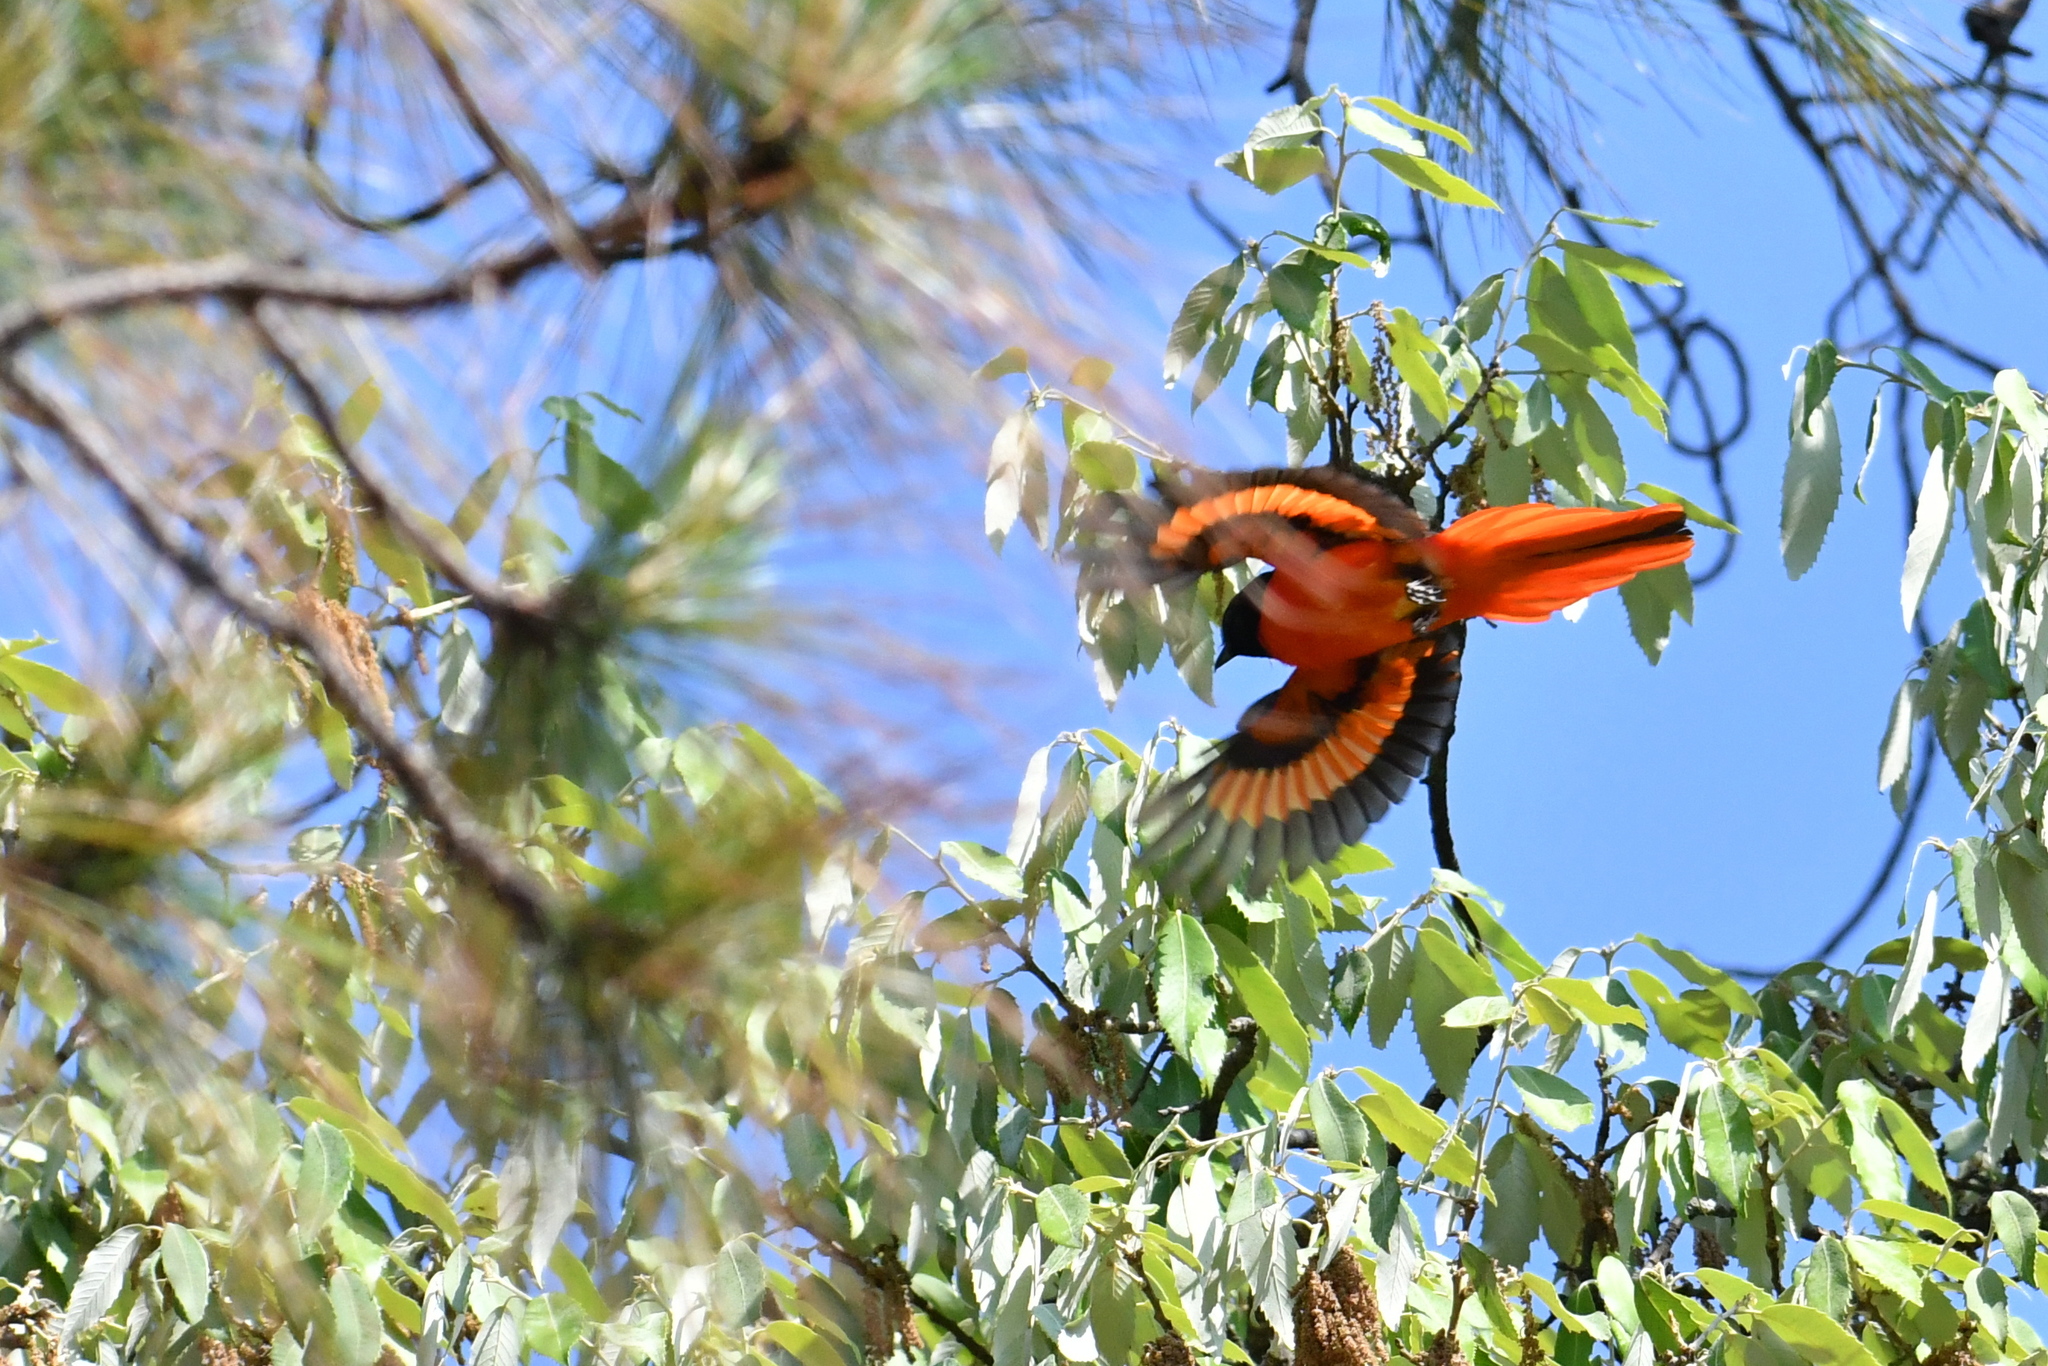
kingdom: Animalia
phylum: Chordata
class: Aves
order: Passeriformes
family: Campephagidae
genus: Pericrocotus
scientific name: Pericrocotus speciosus
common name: Scarlet minivet
